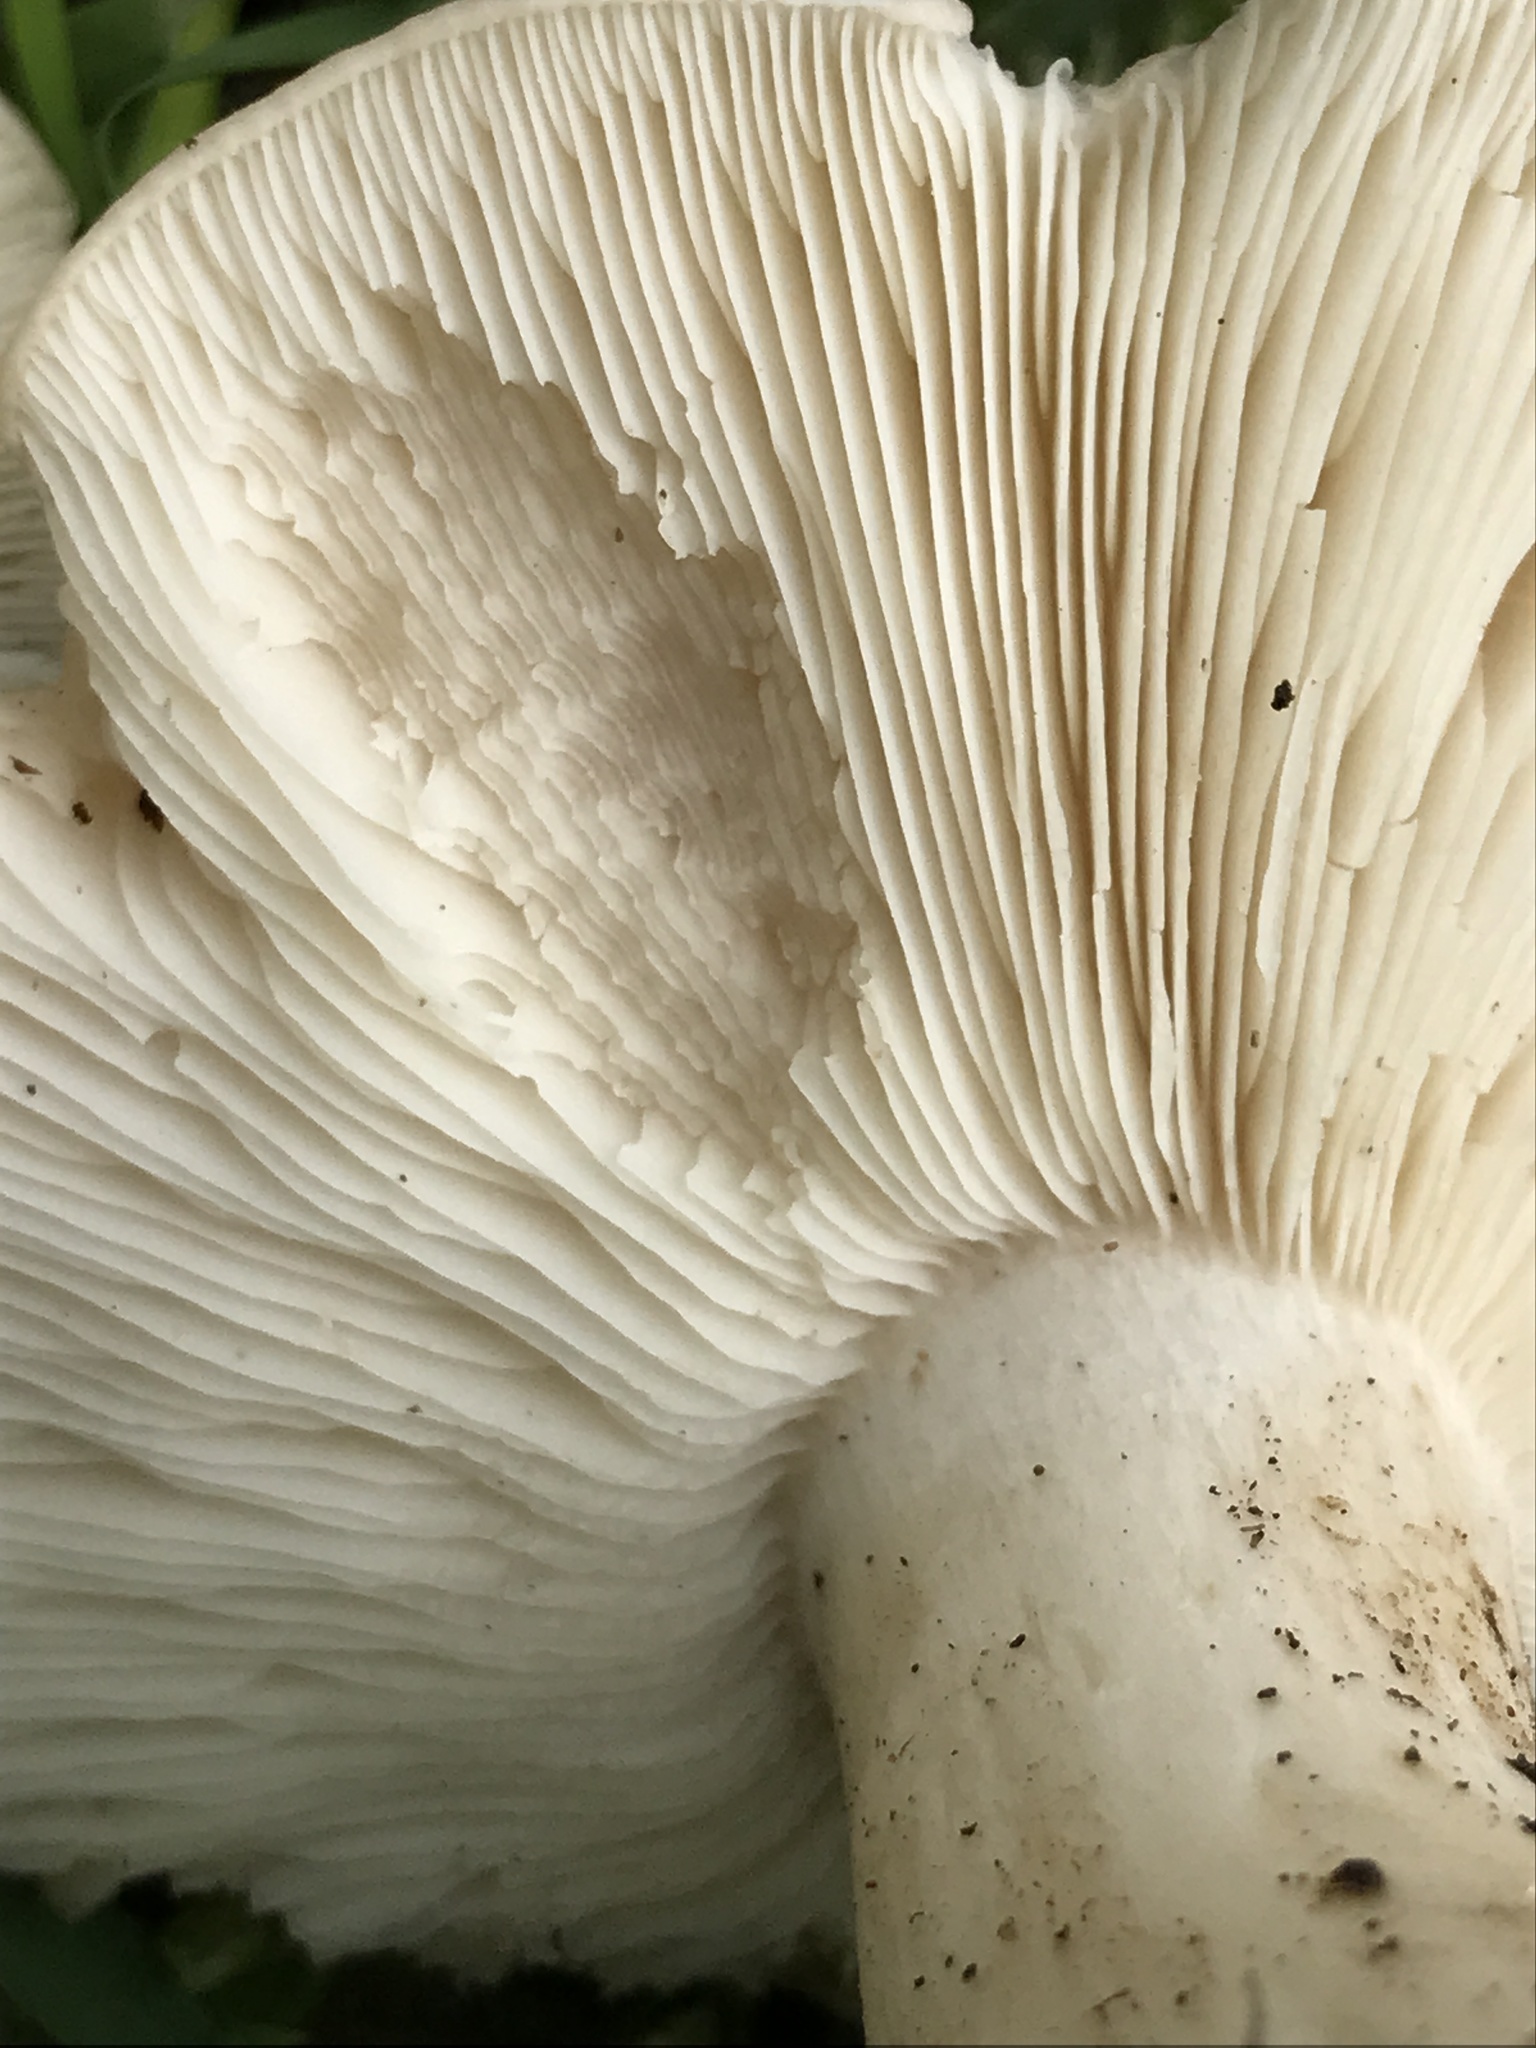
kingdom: Fungi
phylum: Basidiomycota
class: Agaricomycetes
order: Agaricales
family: Lyophyllaceae
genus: Calocybe
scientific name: Calocybe gambosa
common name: St. george's mushroom
